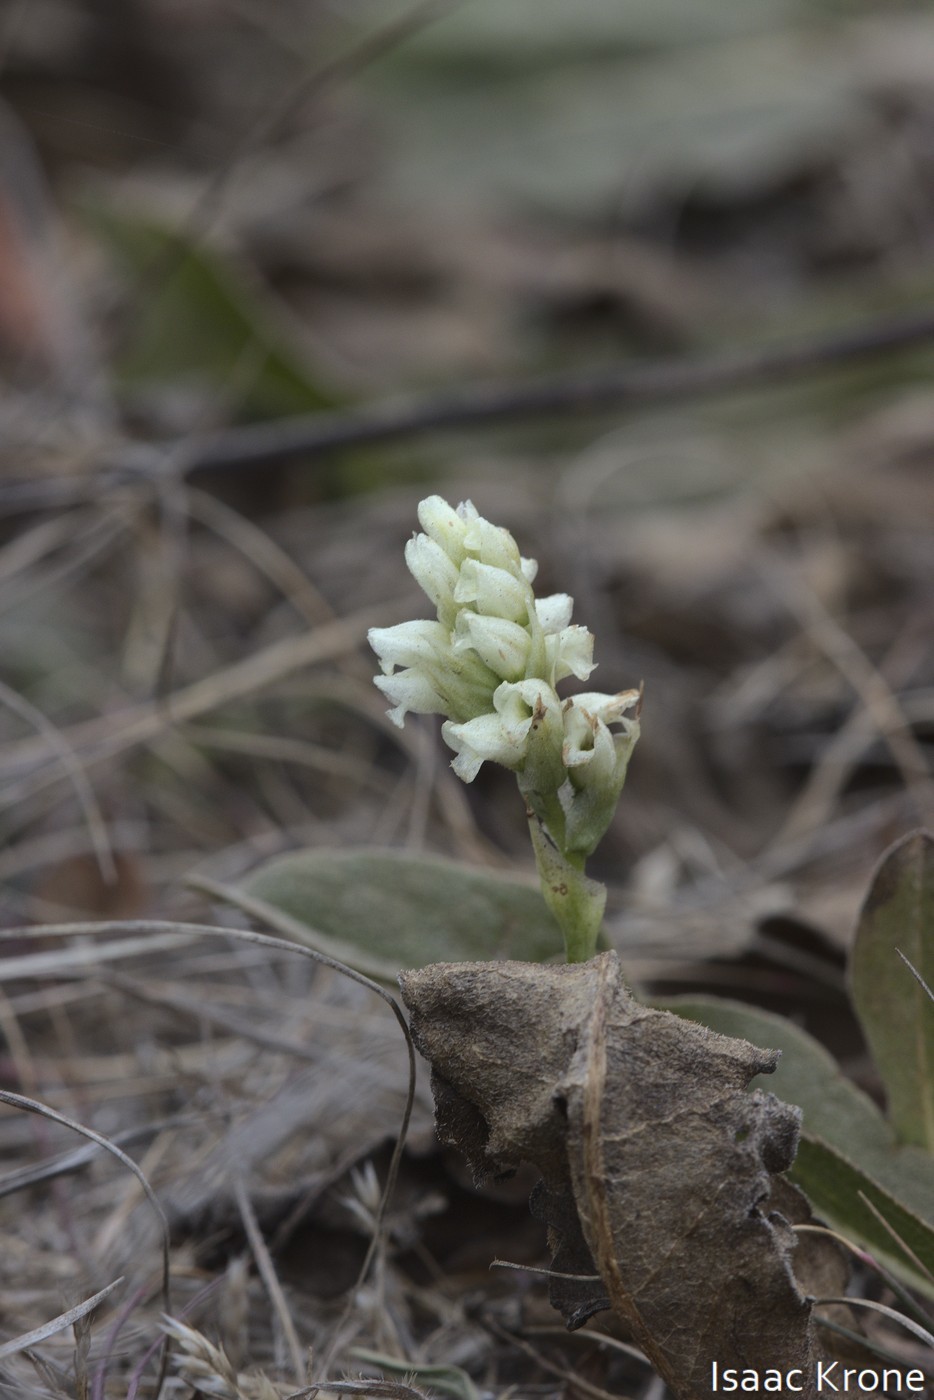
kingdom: Plantae
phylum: Tracheophyta
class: Liliopsida
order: Asparagales
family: Orchidaceae
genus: Spiranthes
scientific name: Spiranthes romanzoffiana
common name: Irish lady's-tresses
